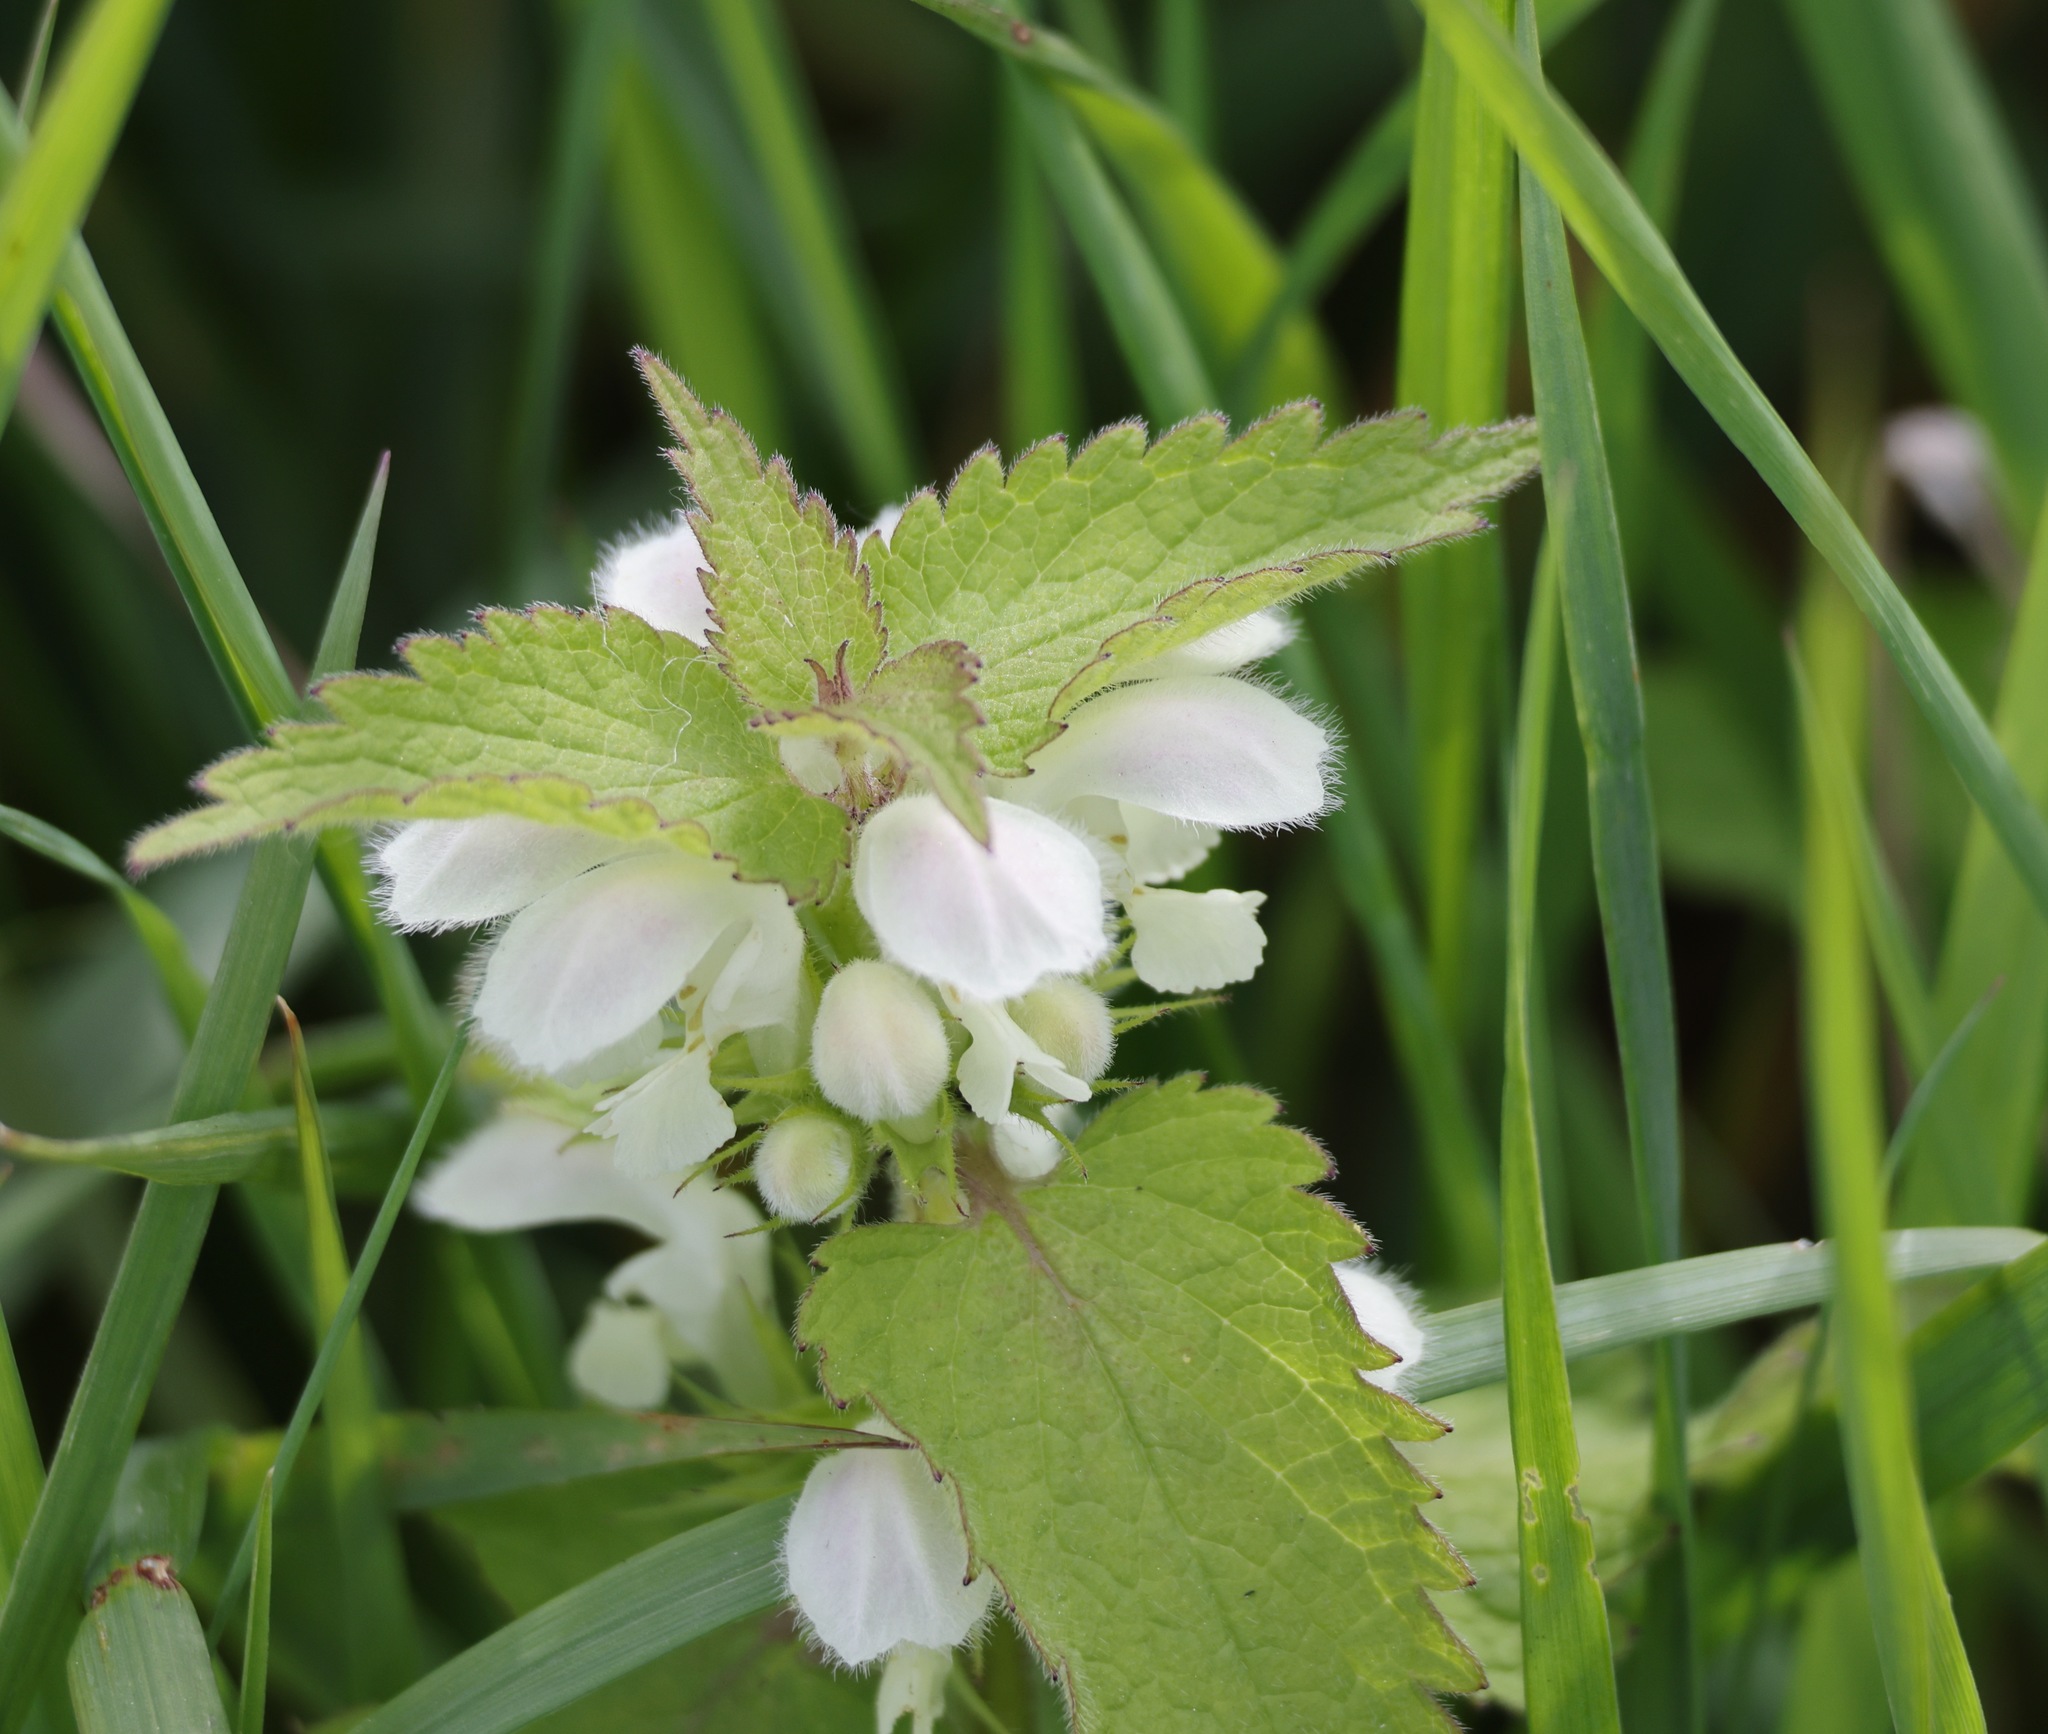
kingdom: Plantae
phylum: Tracheophyta
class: Magnoliopsida
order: Lamiales
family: Lamiaceae
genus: Lamium
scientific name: Lamium album
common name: White dead-nettle
